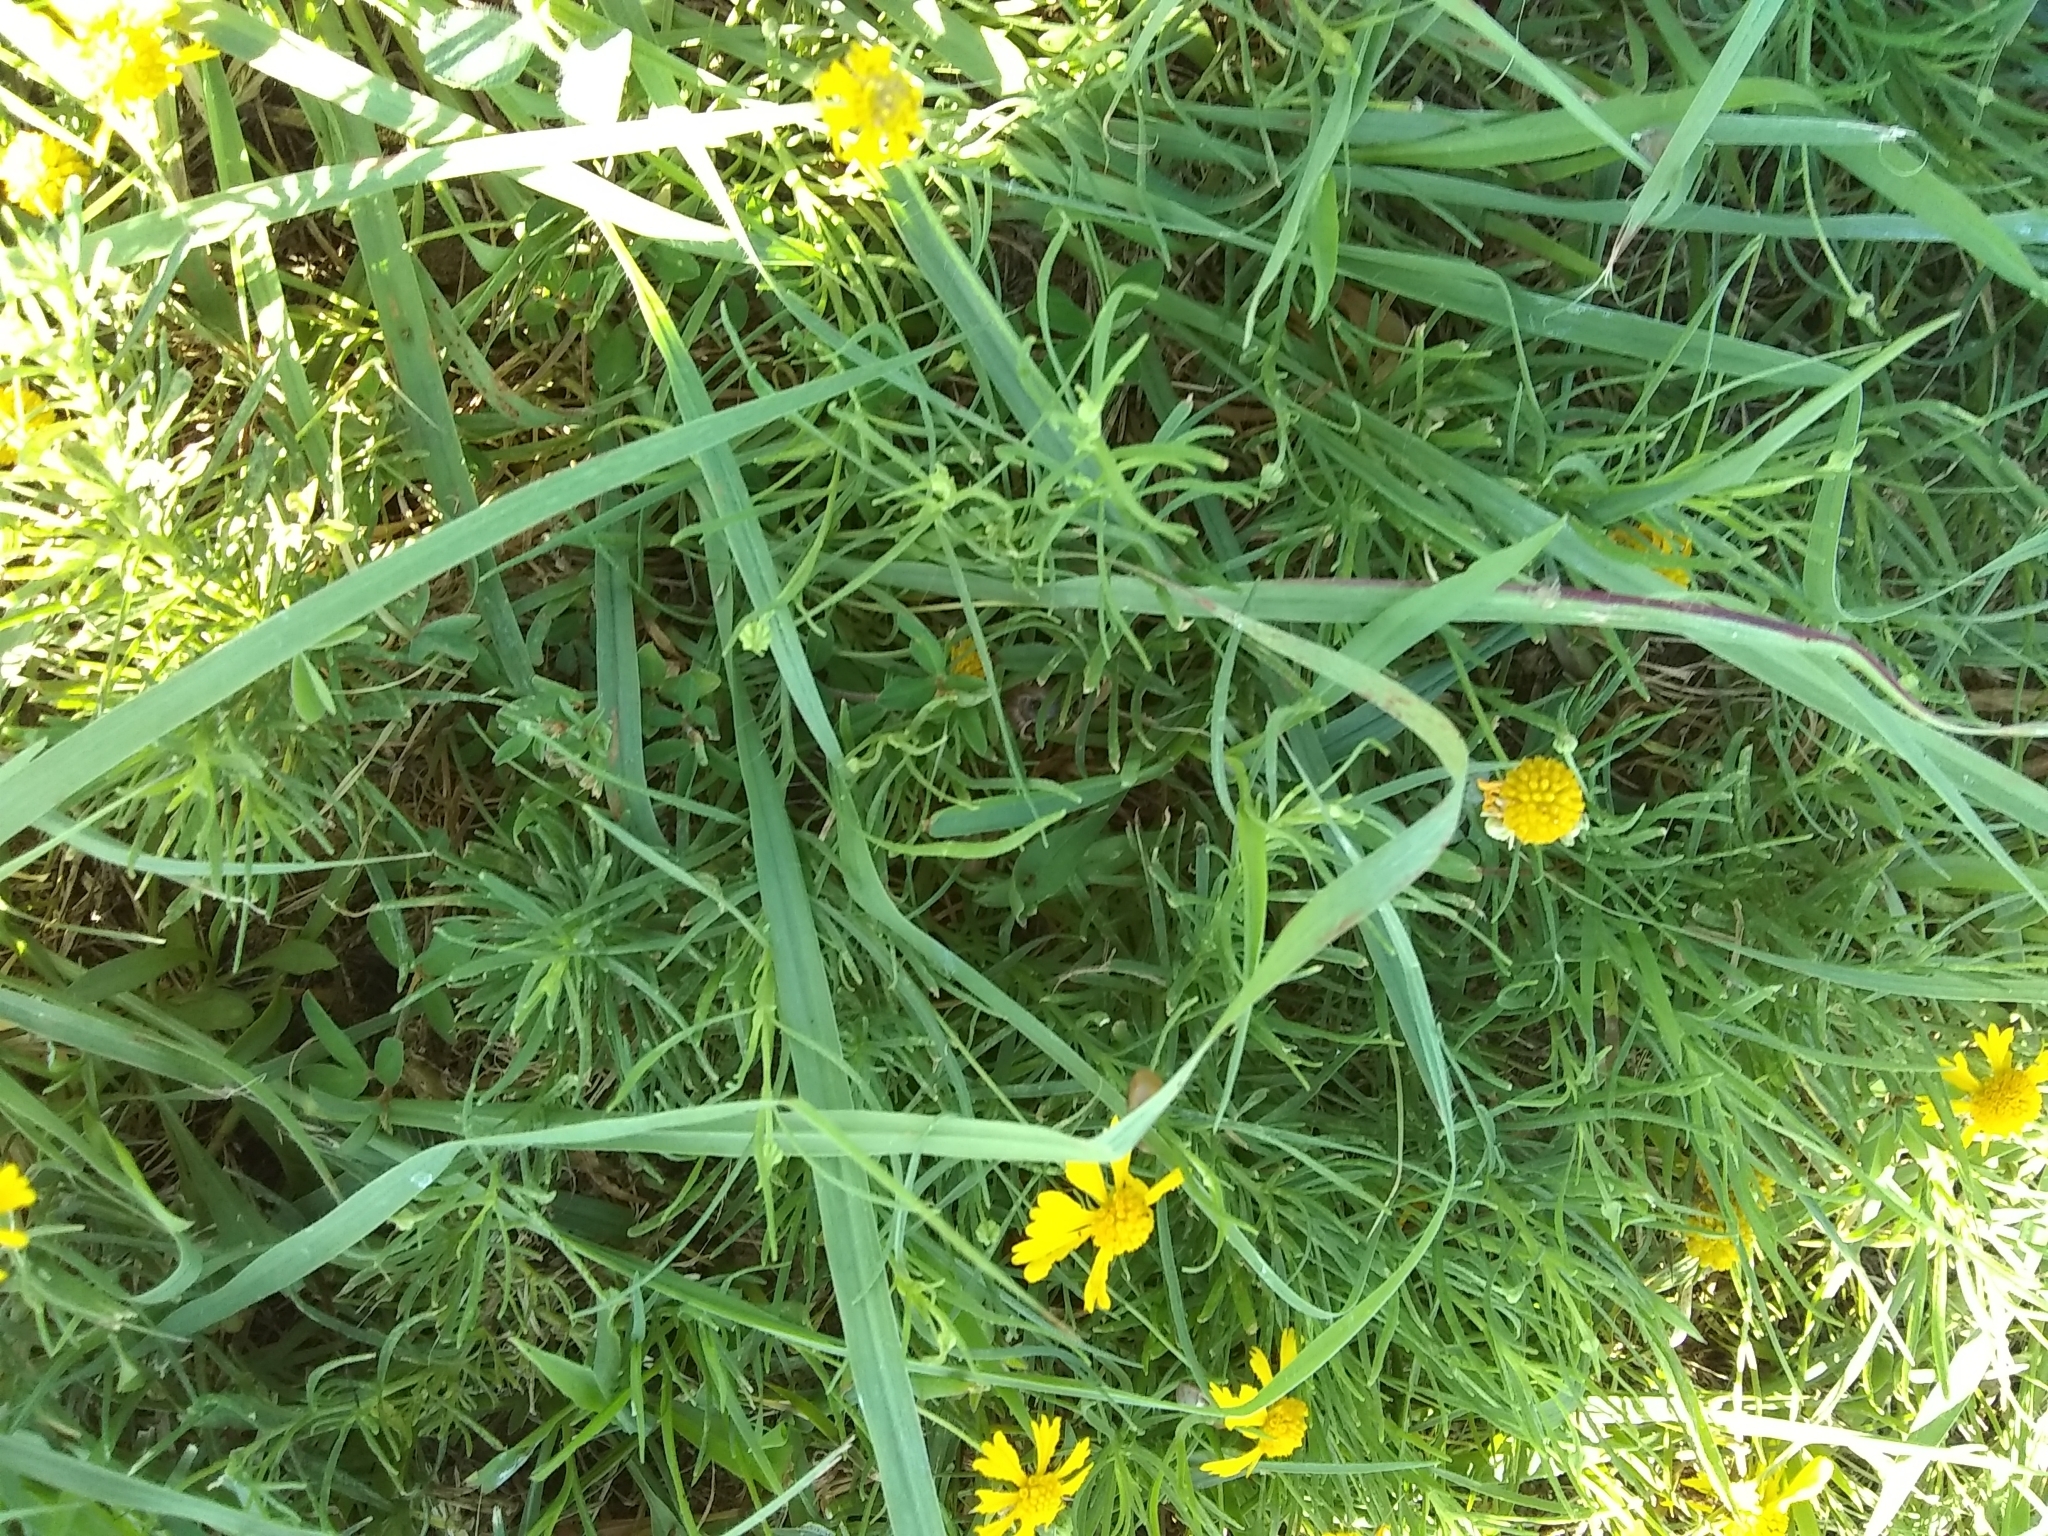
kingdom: Plantae
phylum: Tracheophyta
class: Magnoliopsida
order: Asterales
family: Asteraceae
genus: Helenium
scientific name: Helenium amarum
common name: Bitter sneezeweed
